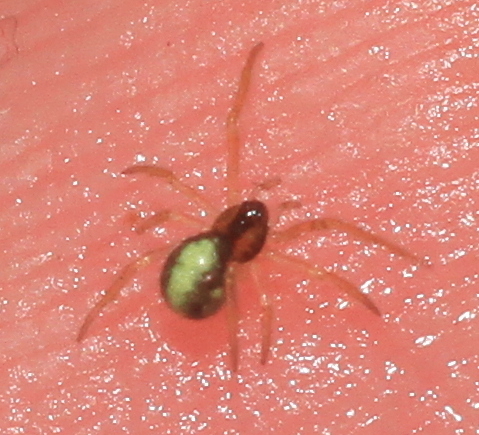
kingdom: Animalia
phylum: Arthropoda
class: Arachnida
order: Araneae
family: Theridiidae
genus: Neottiura
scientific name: Neottiura bimaculata
